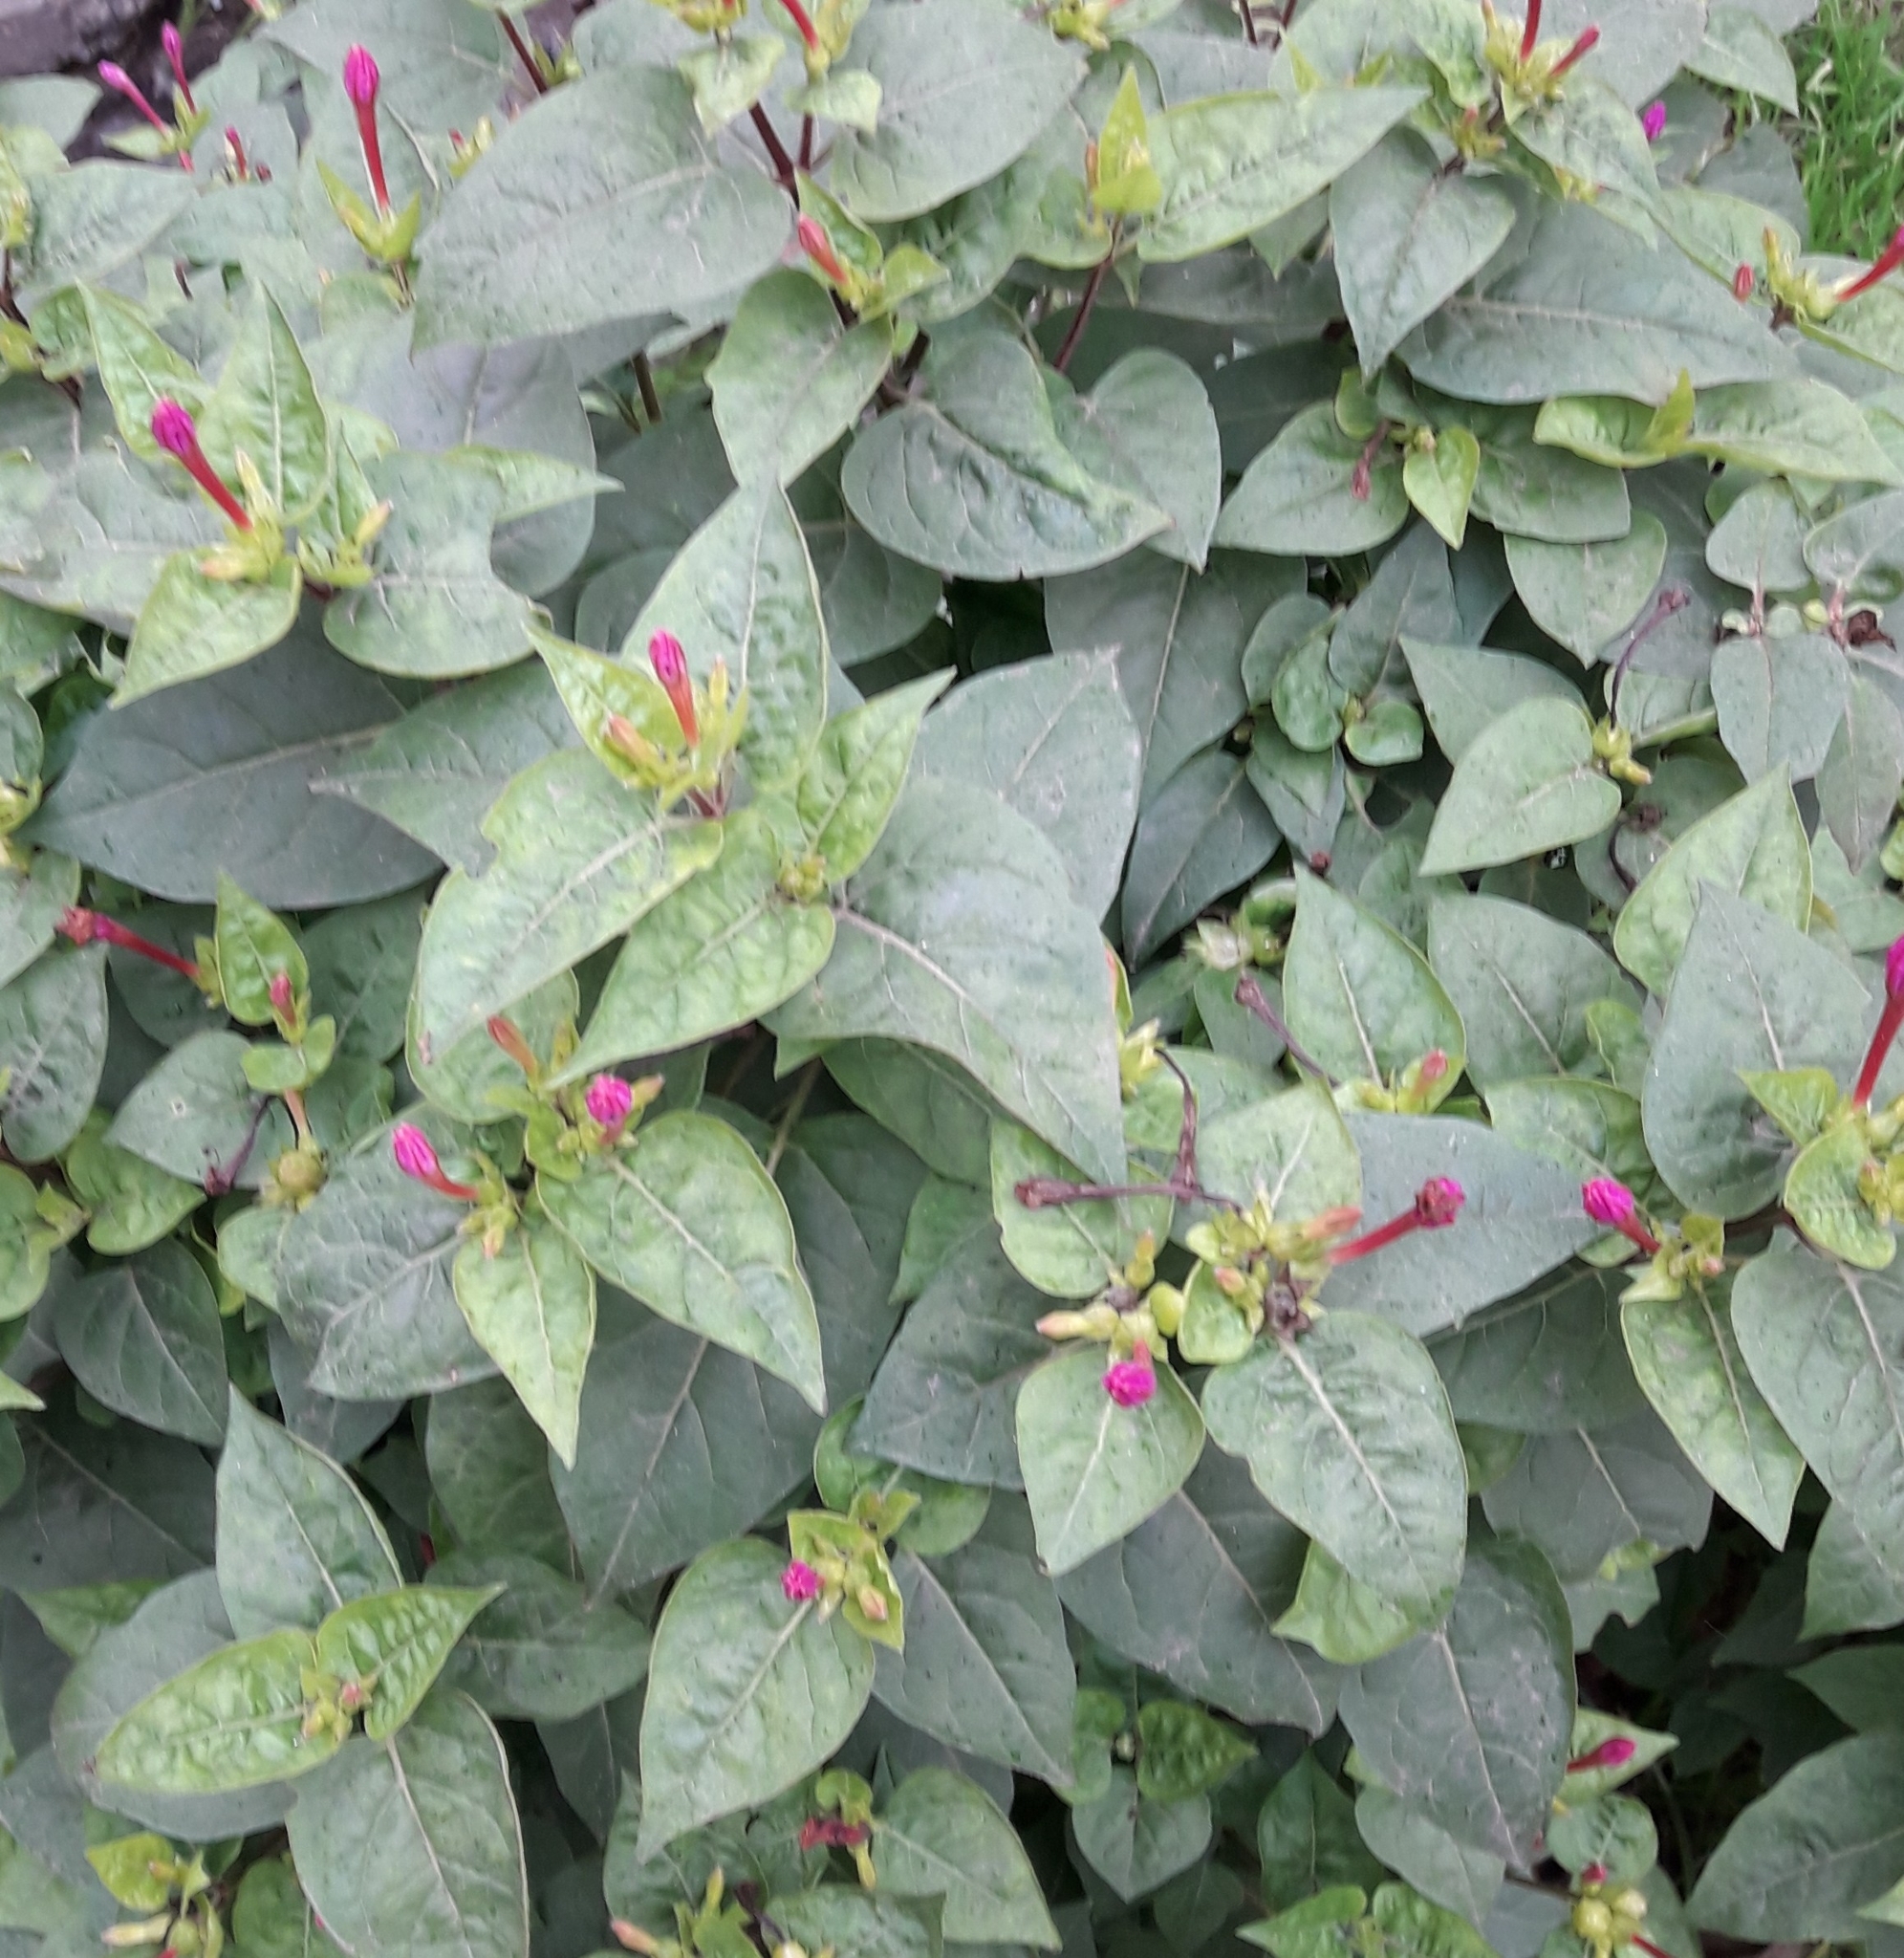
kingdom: Plantae
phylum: Tracheophyta
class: Magnoliopsida
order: Caryophyllales
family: Nyctaginaceae
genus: Mirabilis
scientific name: Mirabilis jalapa
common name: Marvel-of-peru
